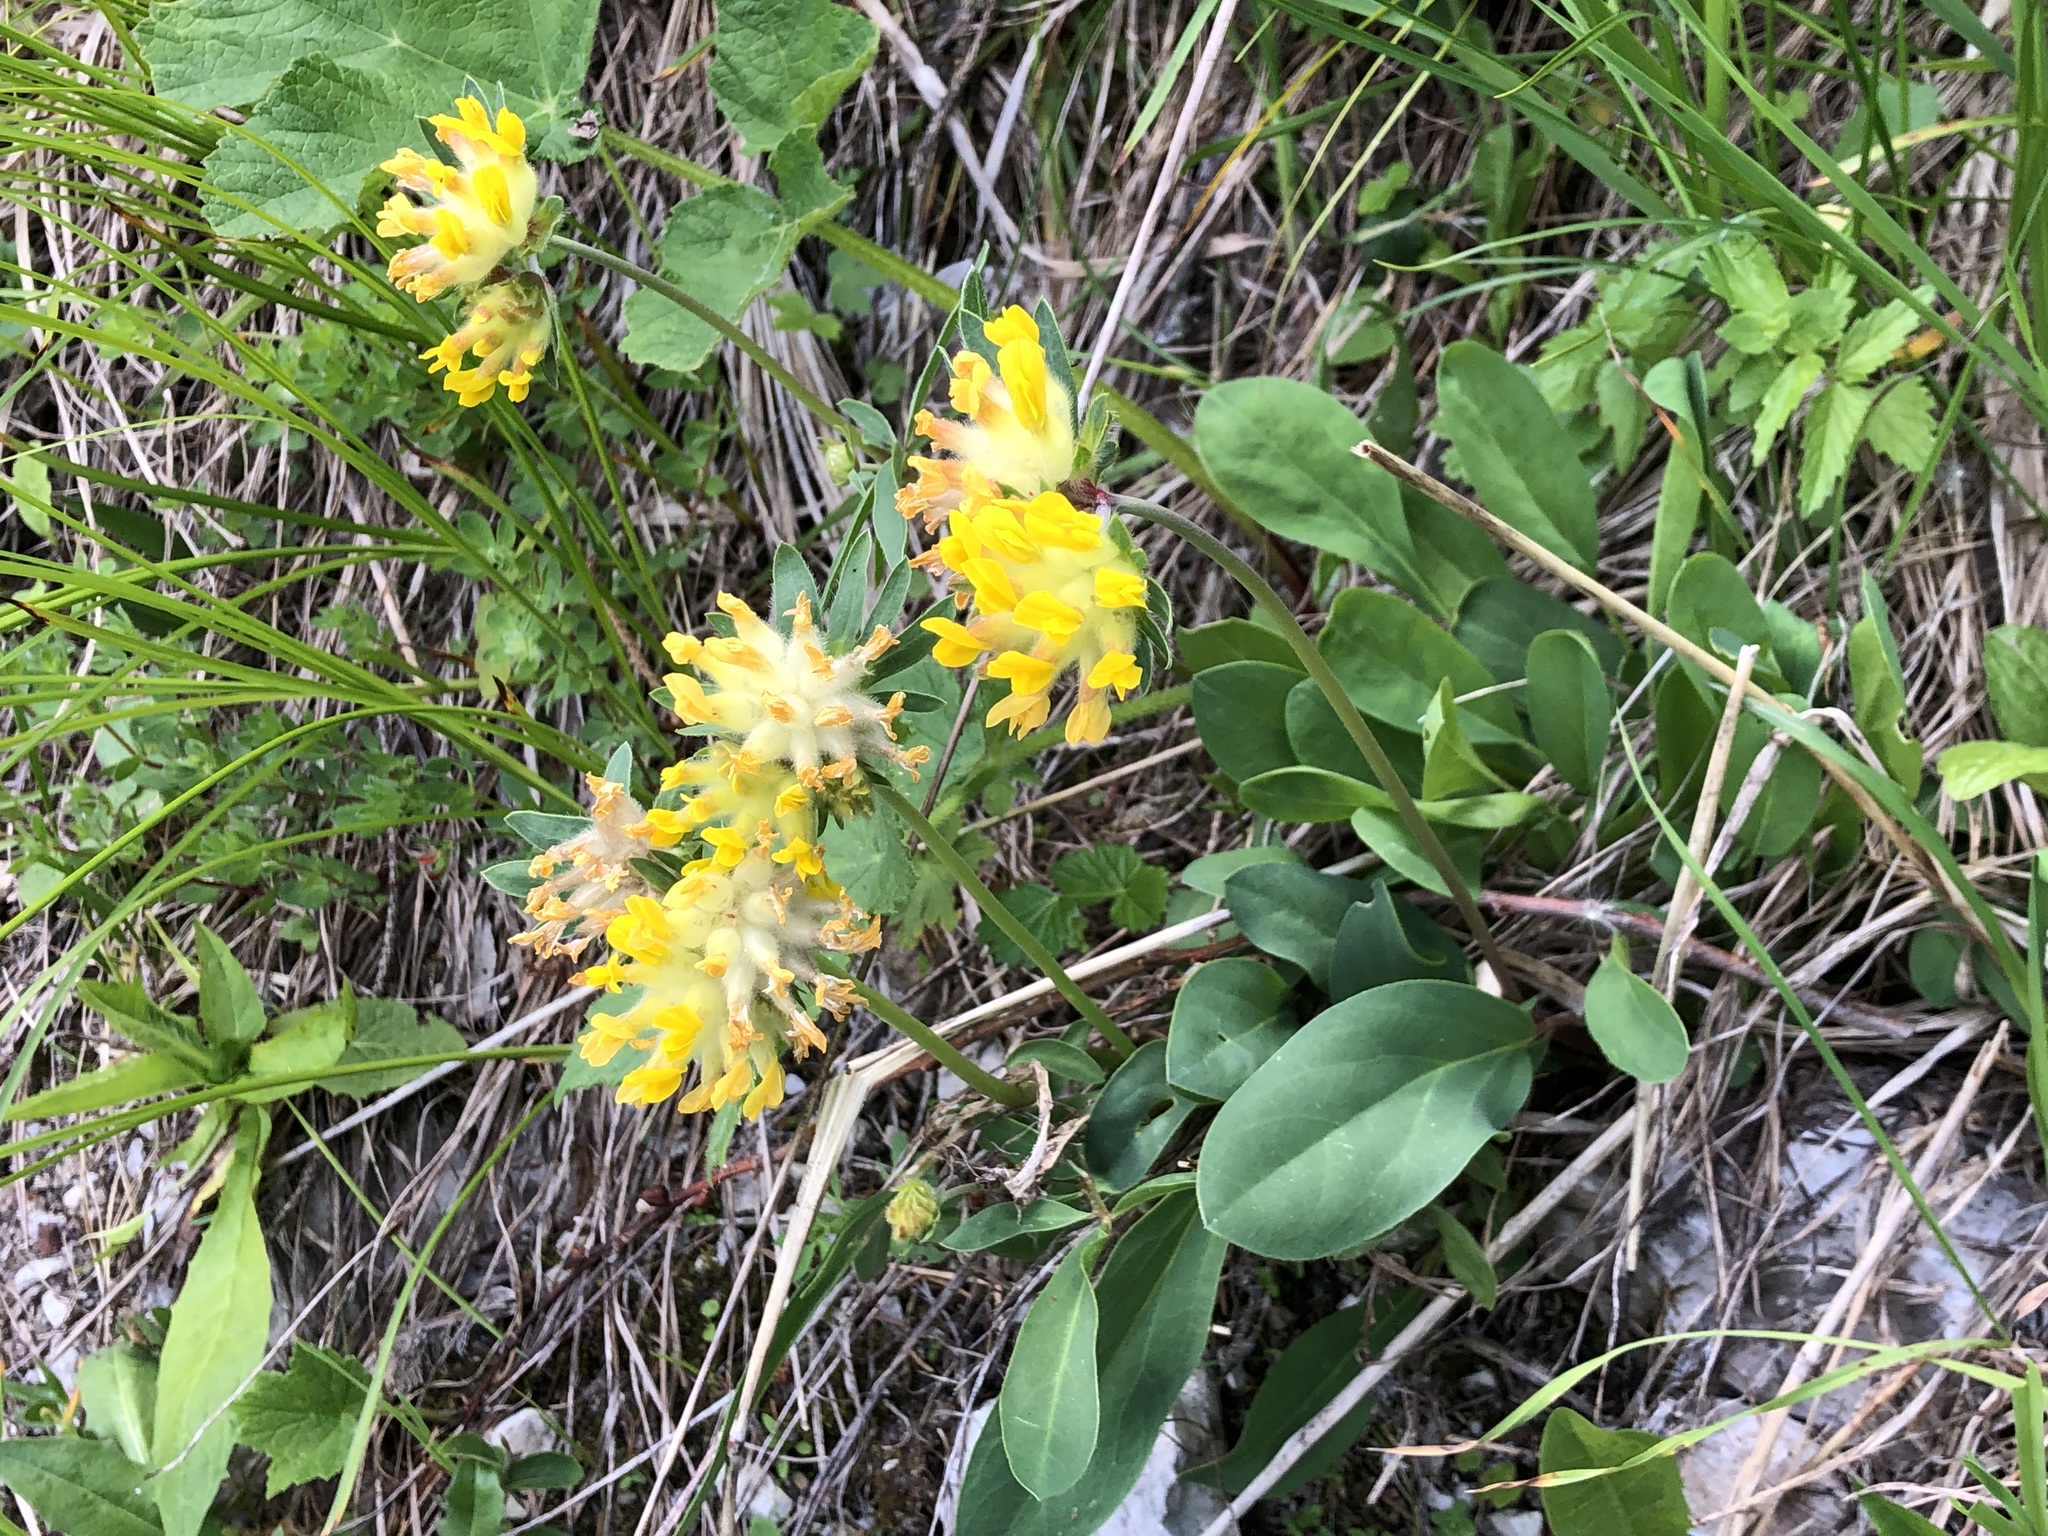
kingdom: Plantae
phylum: Tracheophyta
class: Magnoliopsida
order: Fabales
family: Fabaceae
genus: Anthyllis
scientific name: Anthyllis vulneraria
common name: Kidney vetch
